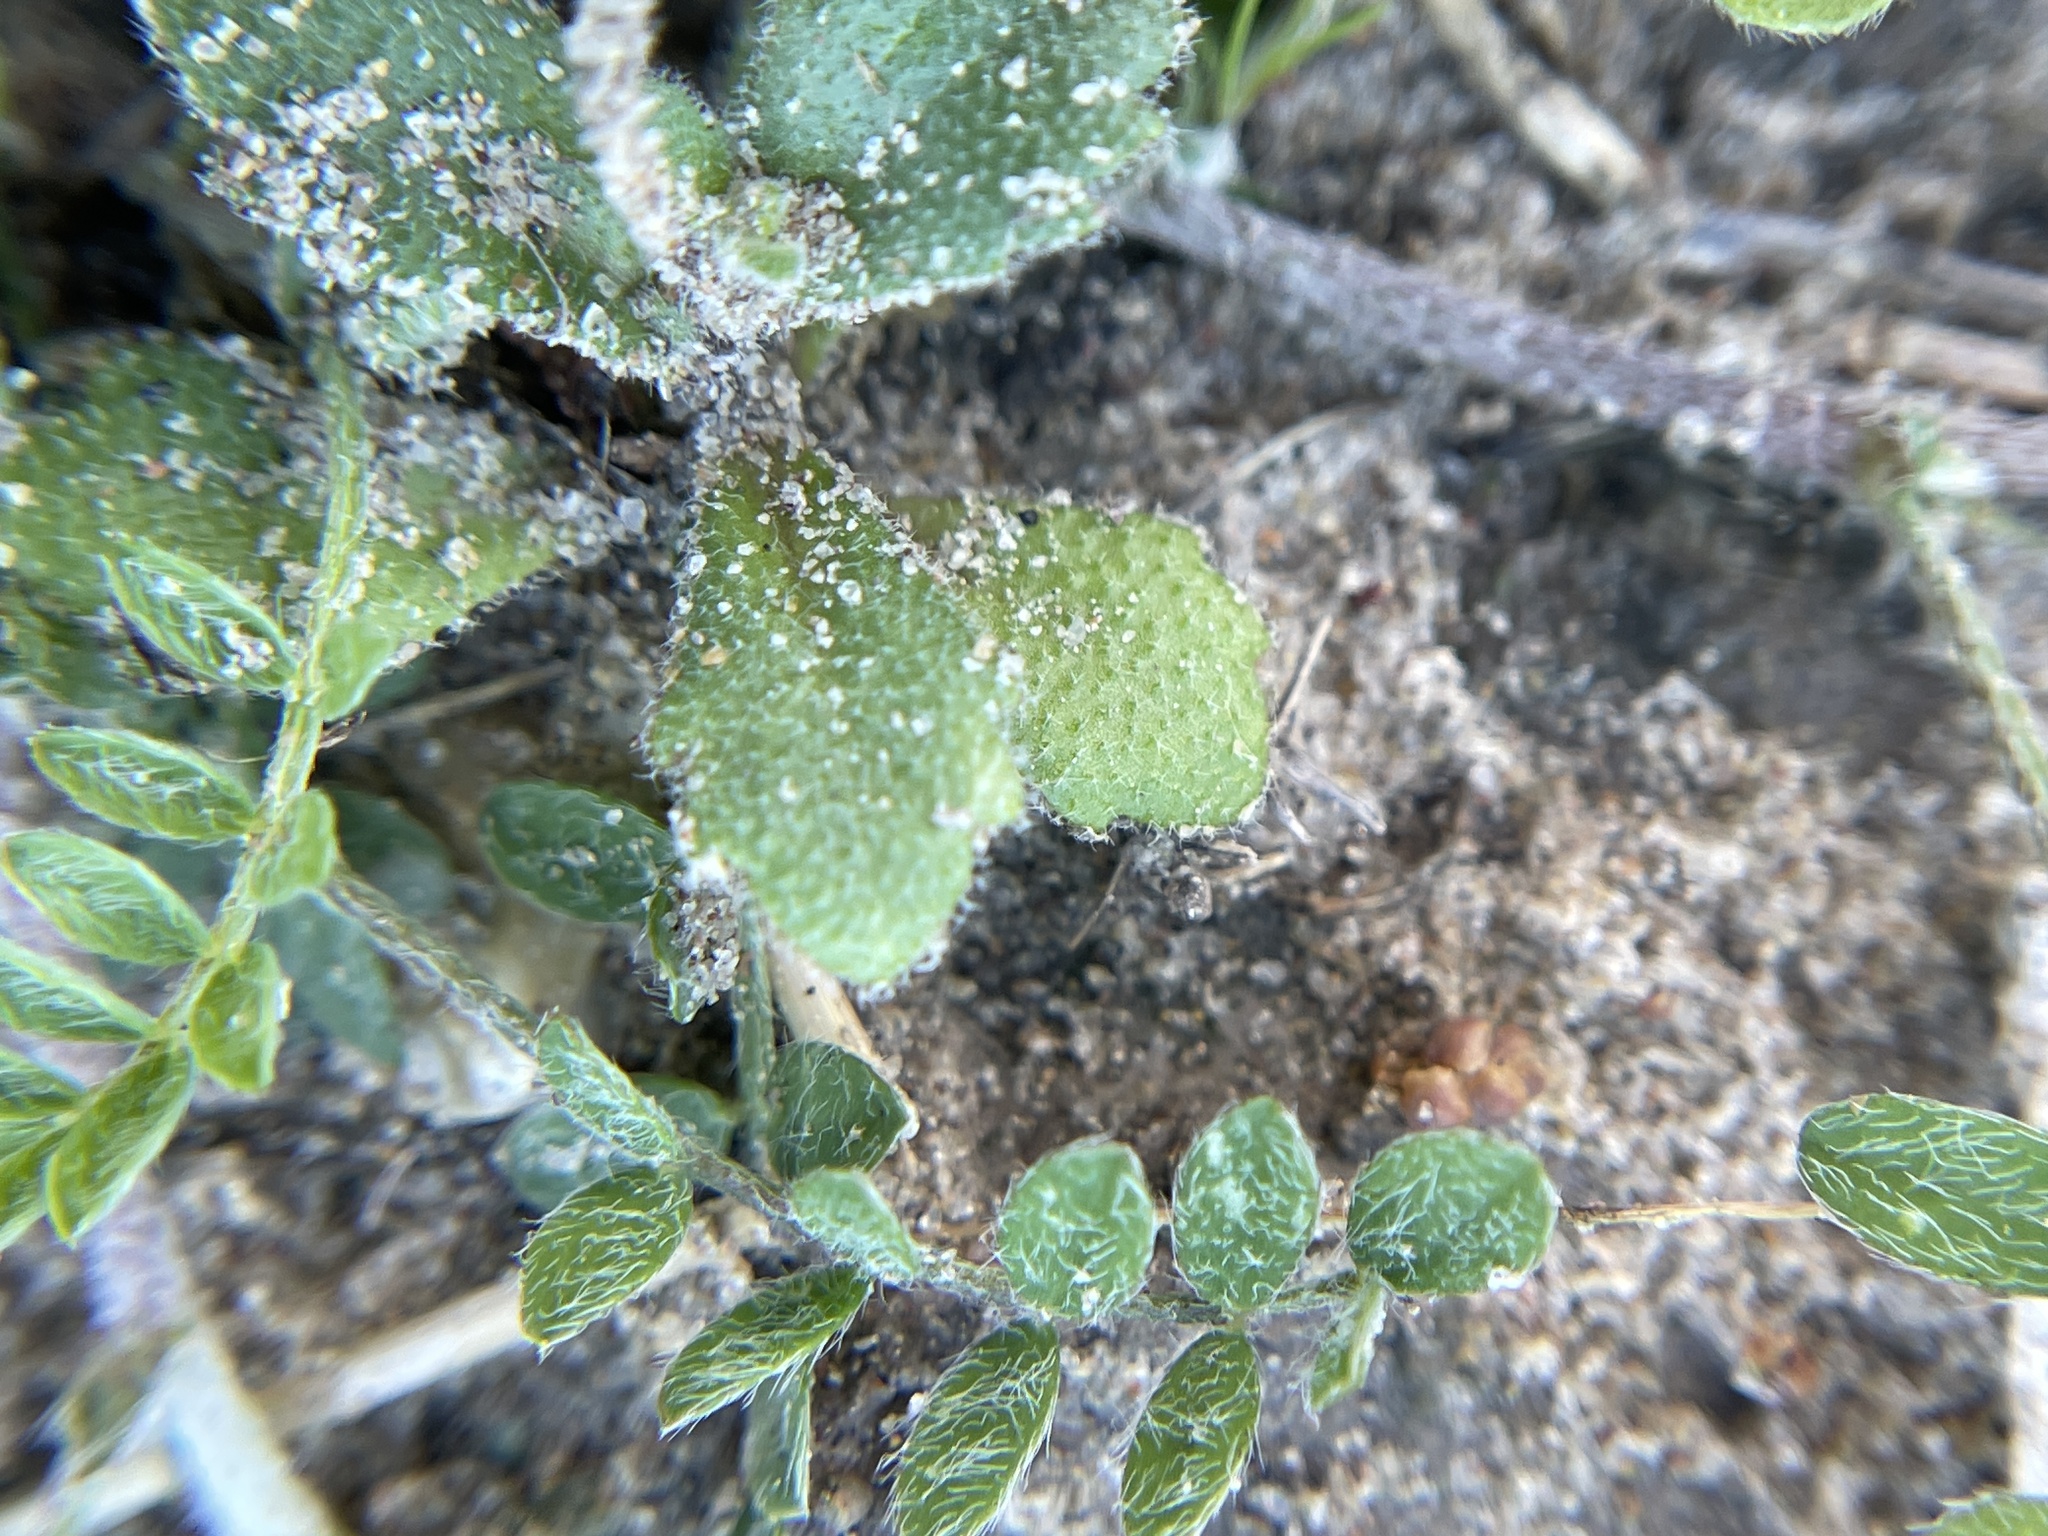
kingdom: Plantae
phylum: Tracheophyta
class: Magnoliopsida
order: Brassicales
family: Brassicaceae
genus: Tomostima
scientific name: Tomostima cuneifolia
